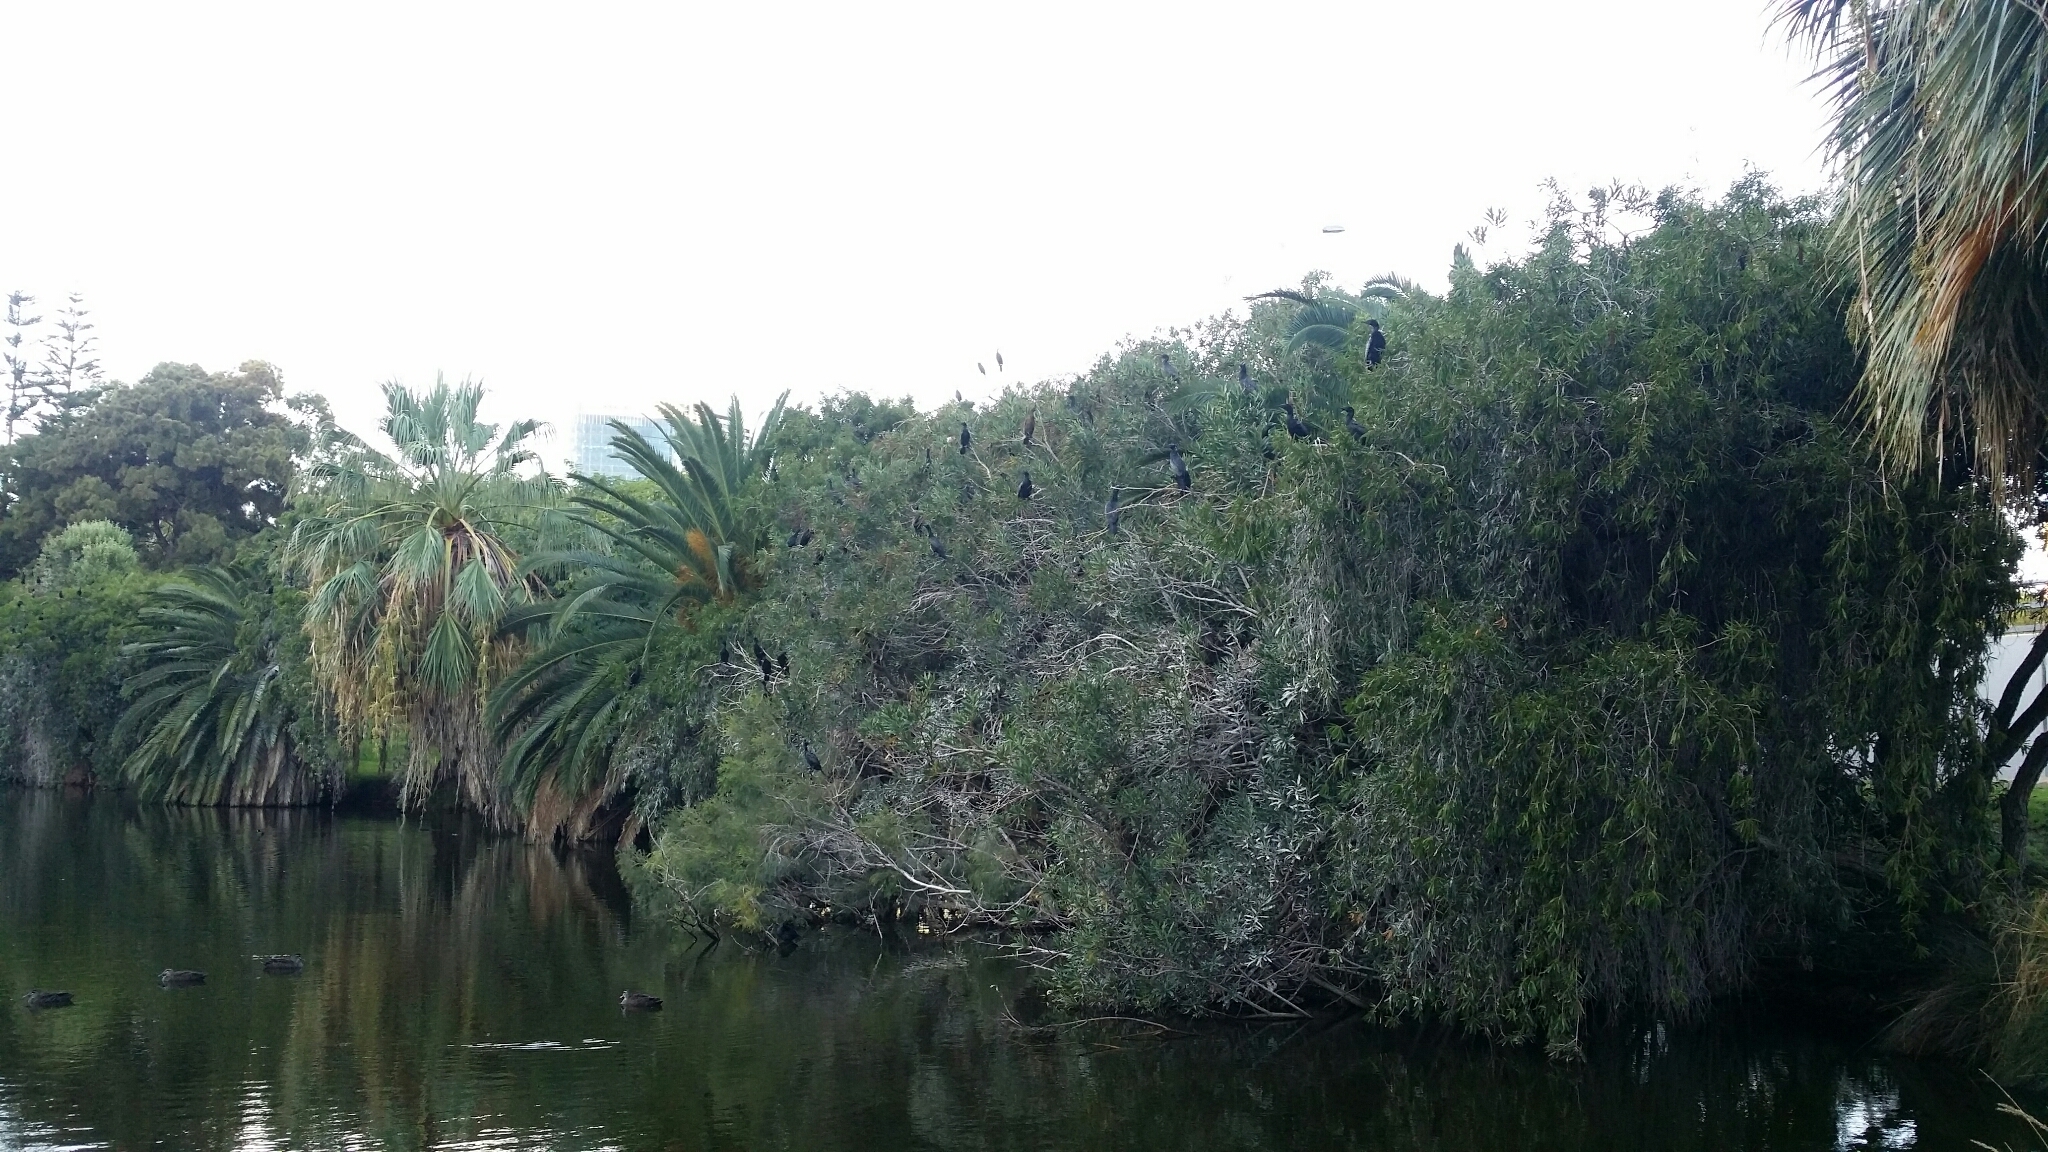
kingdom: Animalia
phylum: Chordata
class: Aves
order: Suliformes
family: Phalacrocoracidae
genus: Phalacrocorax
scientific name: Phalacrocorax sulcirostris
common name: Little black cormorant
